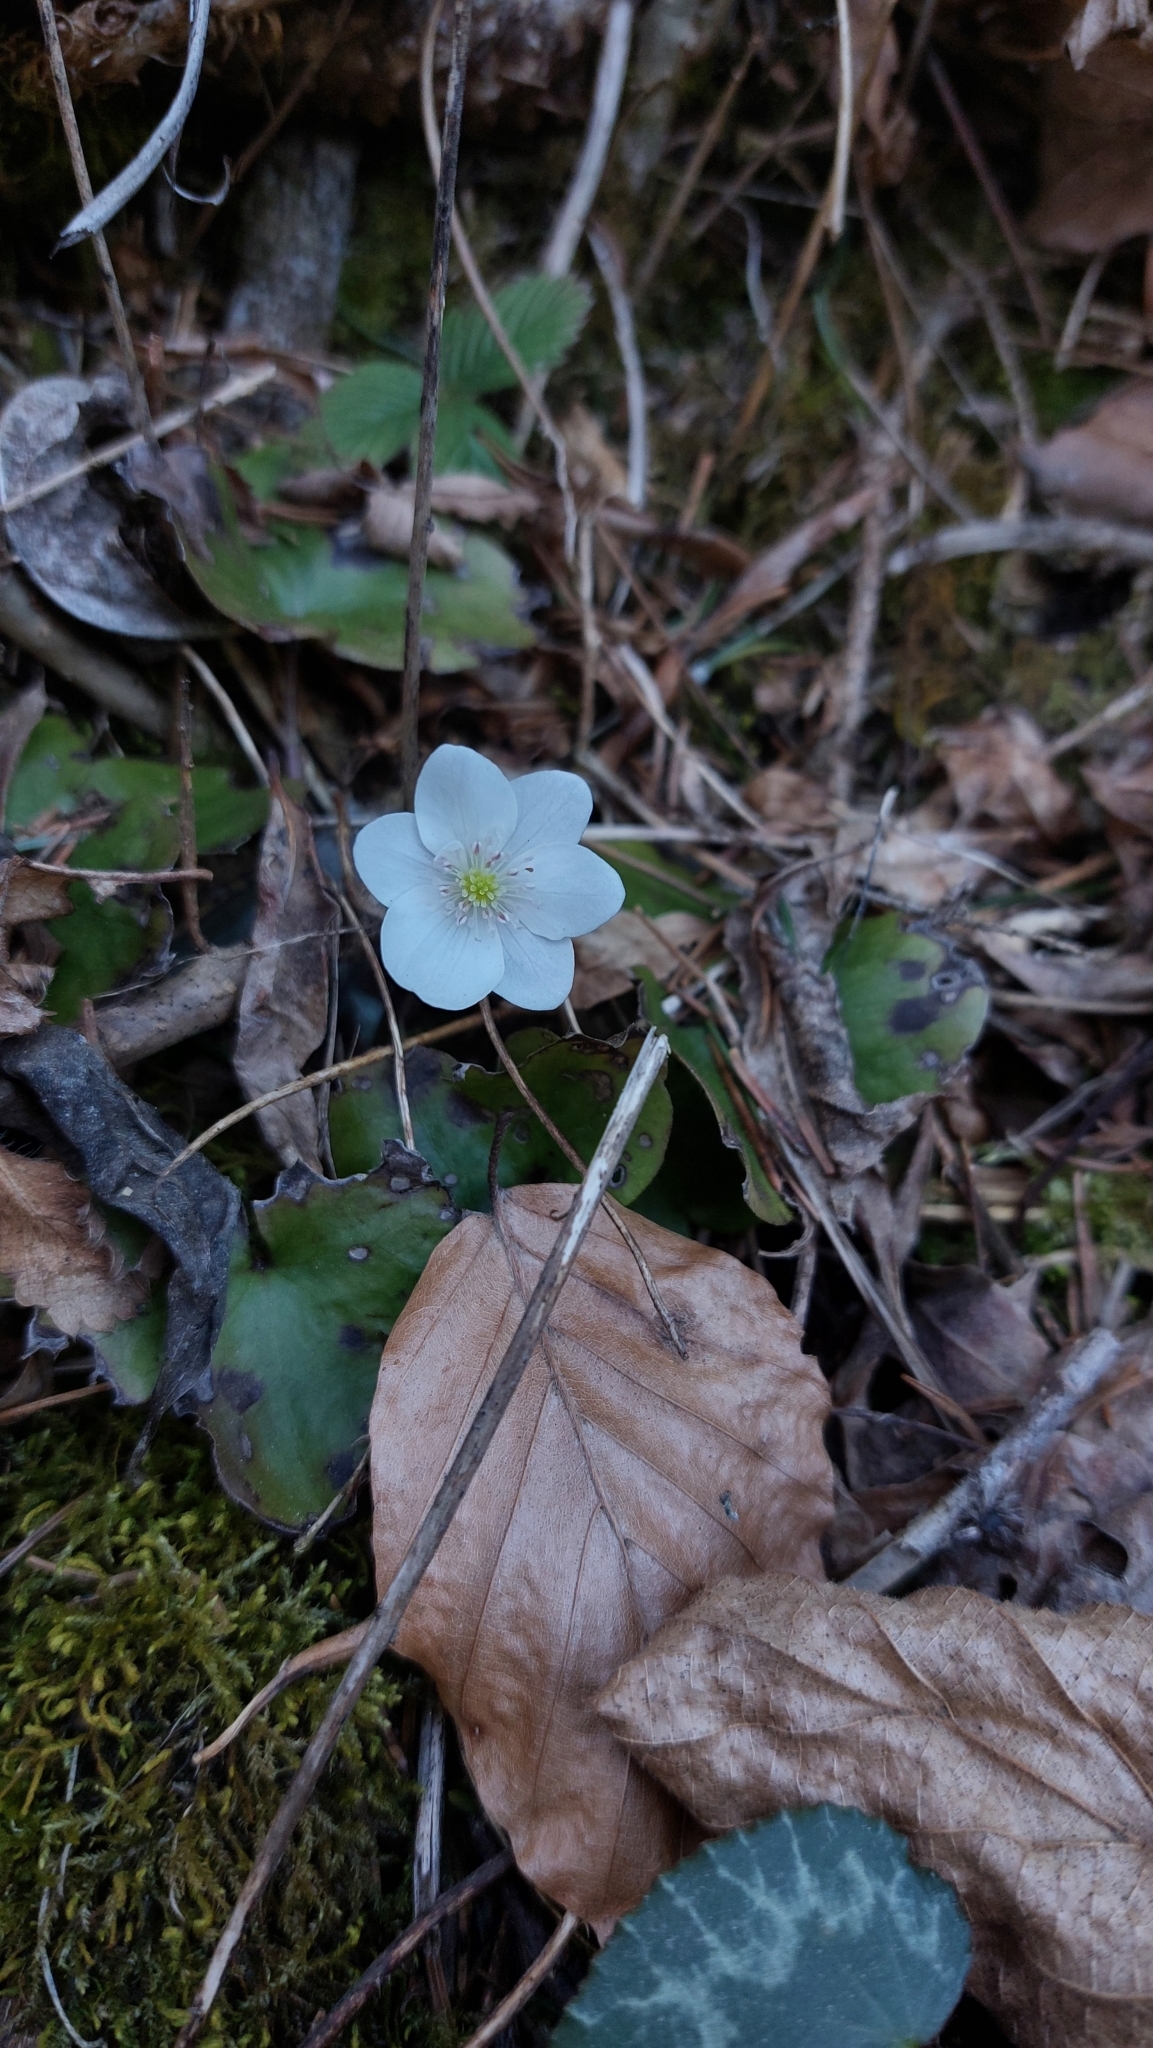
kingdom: Plantae
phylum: Tracheophyta
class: Magnoliopsida
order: Ranunculales
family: Ranunculaceae
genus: Hepatica
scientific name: Hepatica nobilis
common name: Liverleaf
